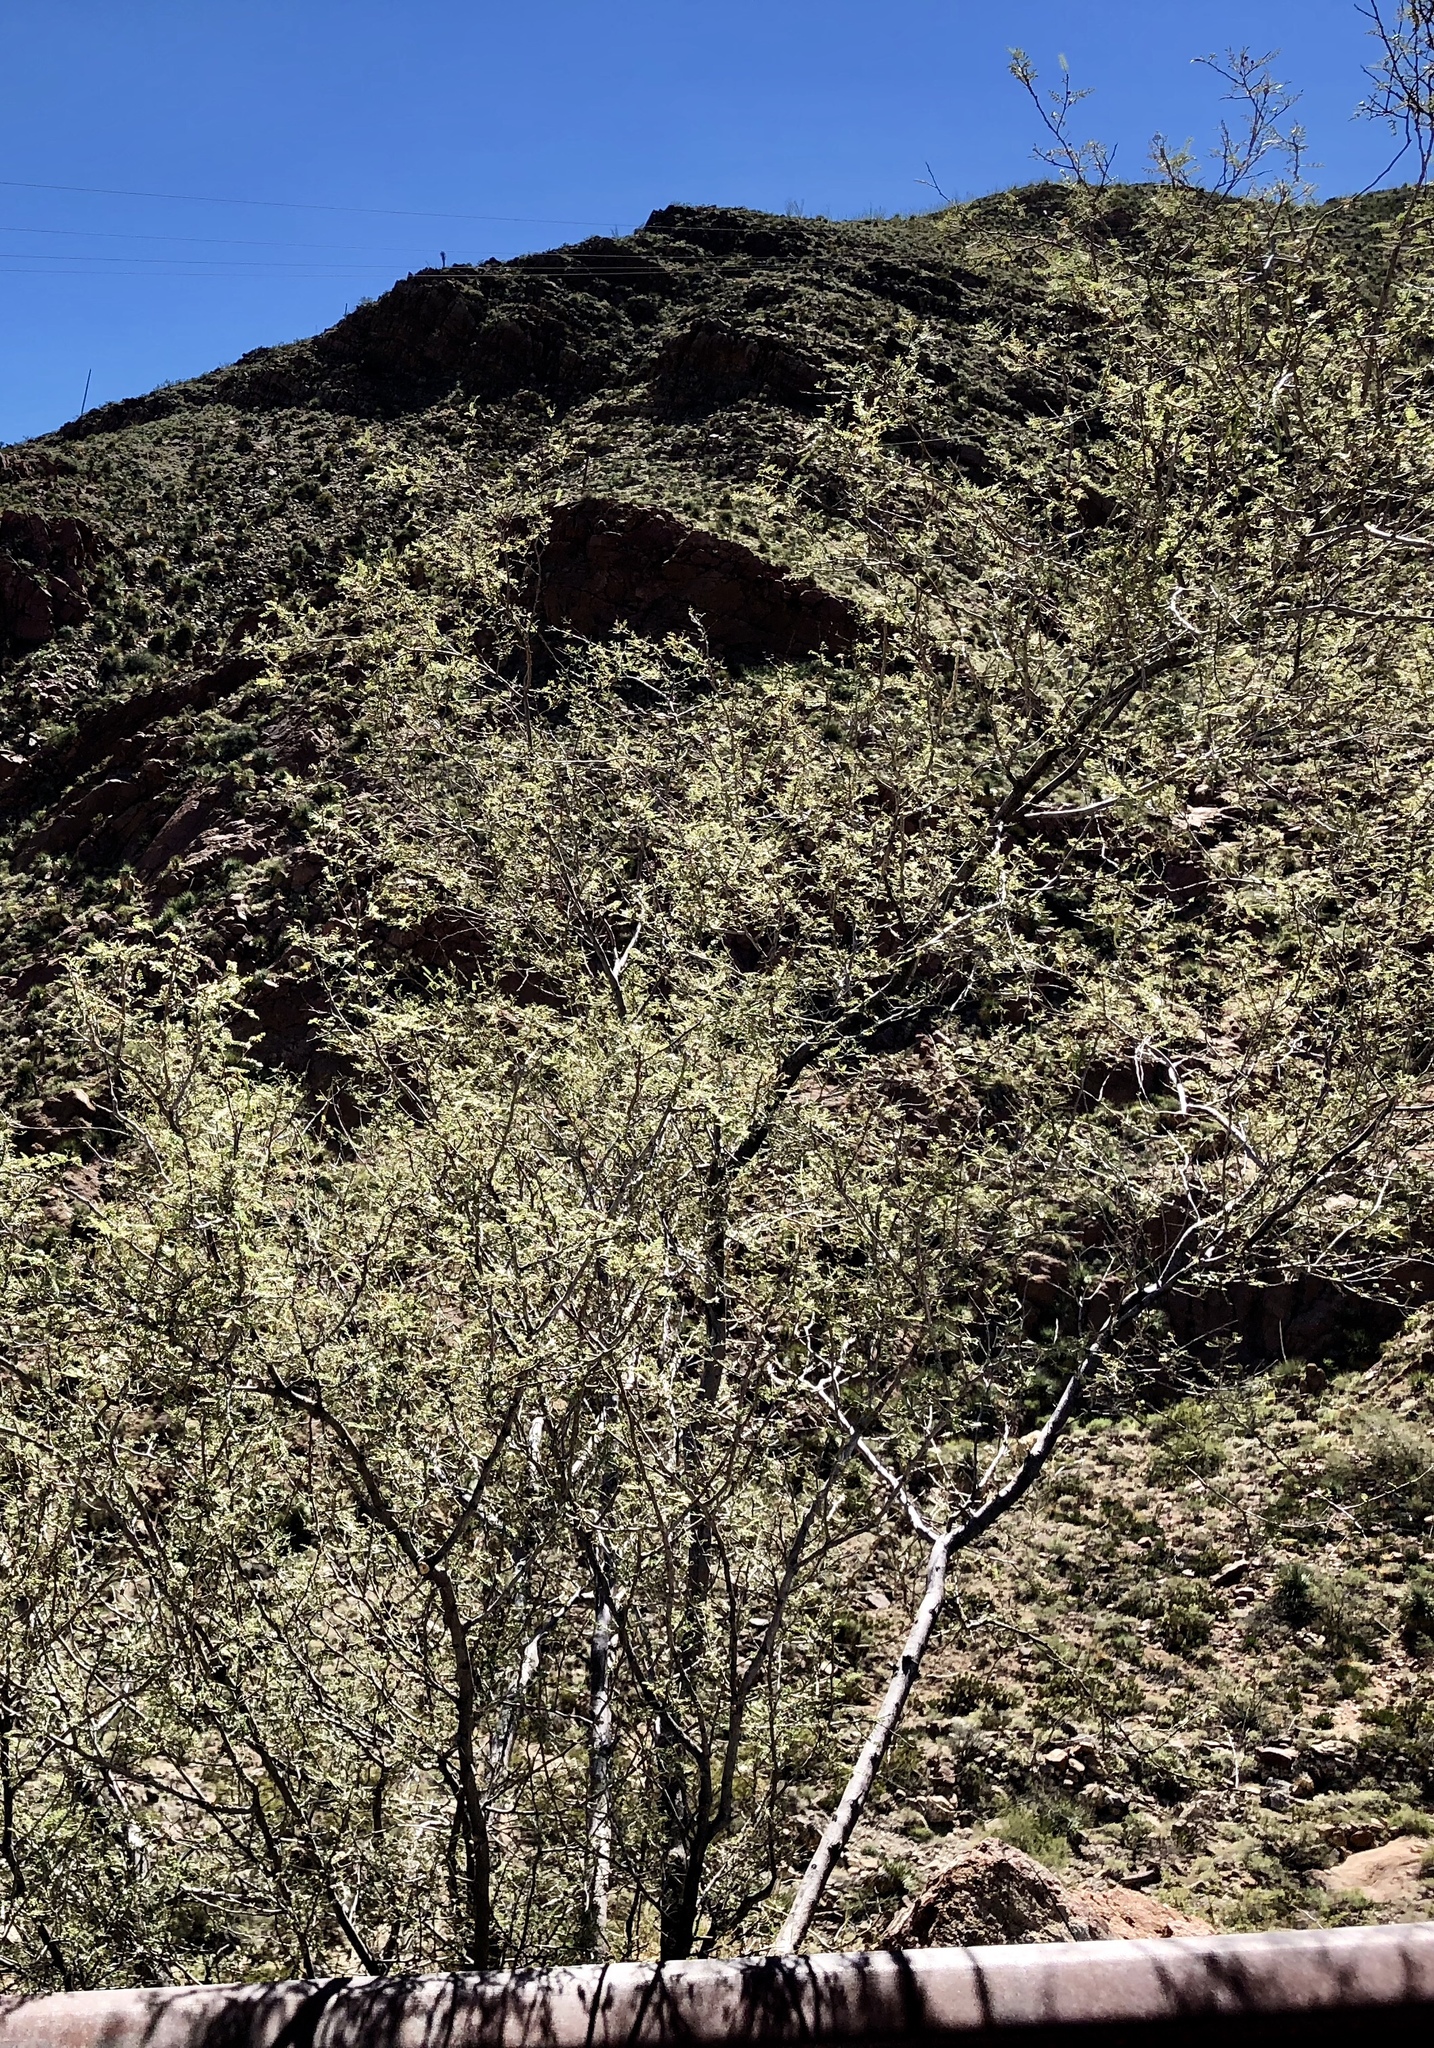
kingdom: Plantae
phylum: Tracheophyta
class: Magnoliopsida
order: Fabales
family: Fabaceae
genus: Vachellia
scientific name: Vachellia constricta
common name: Mescat acacia
